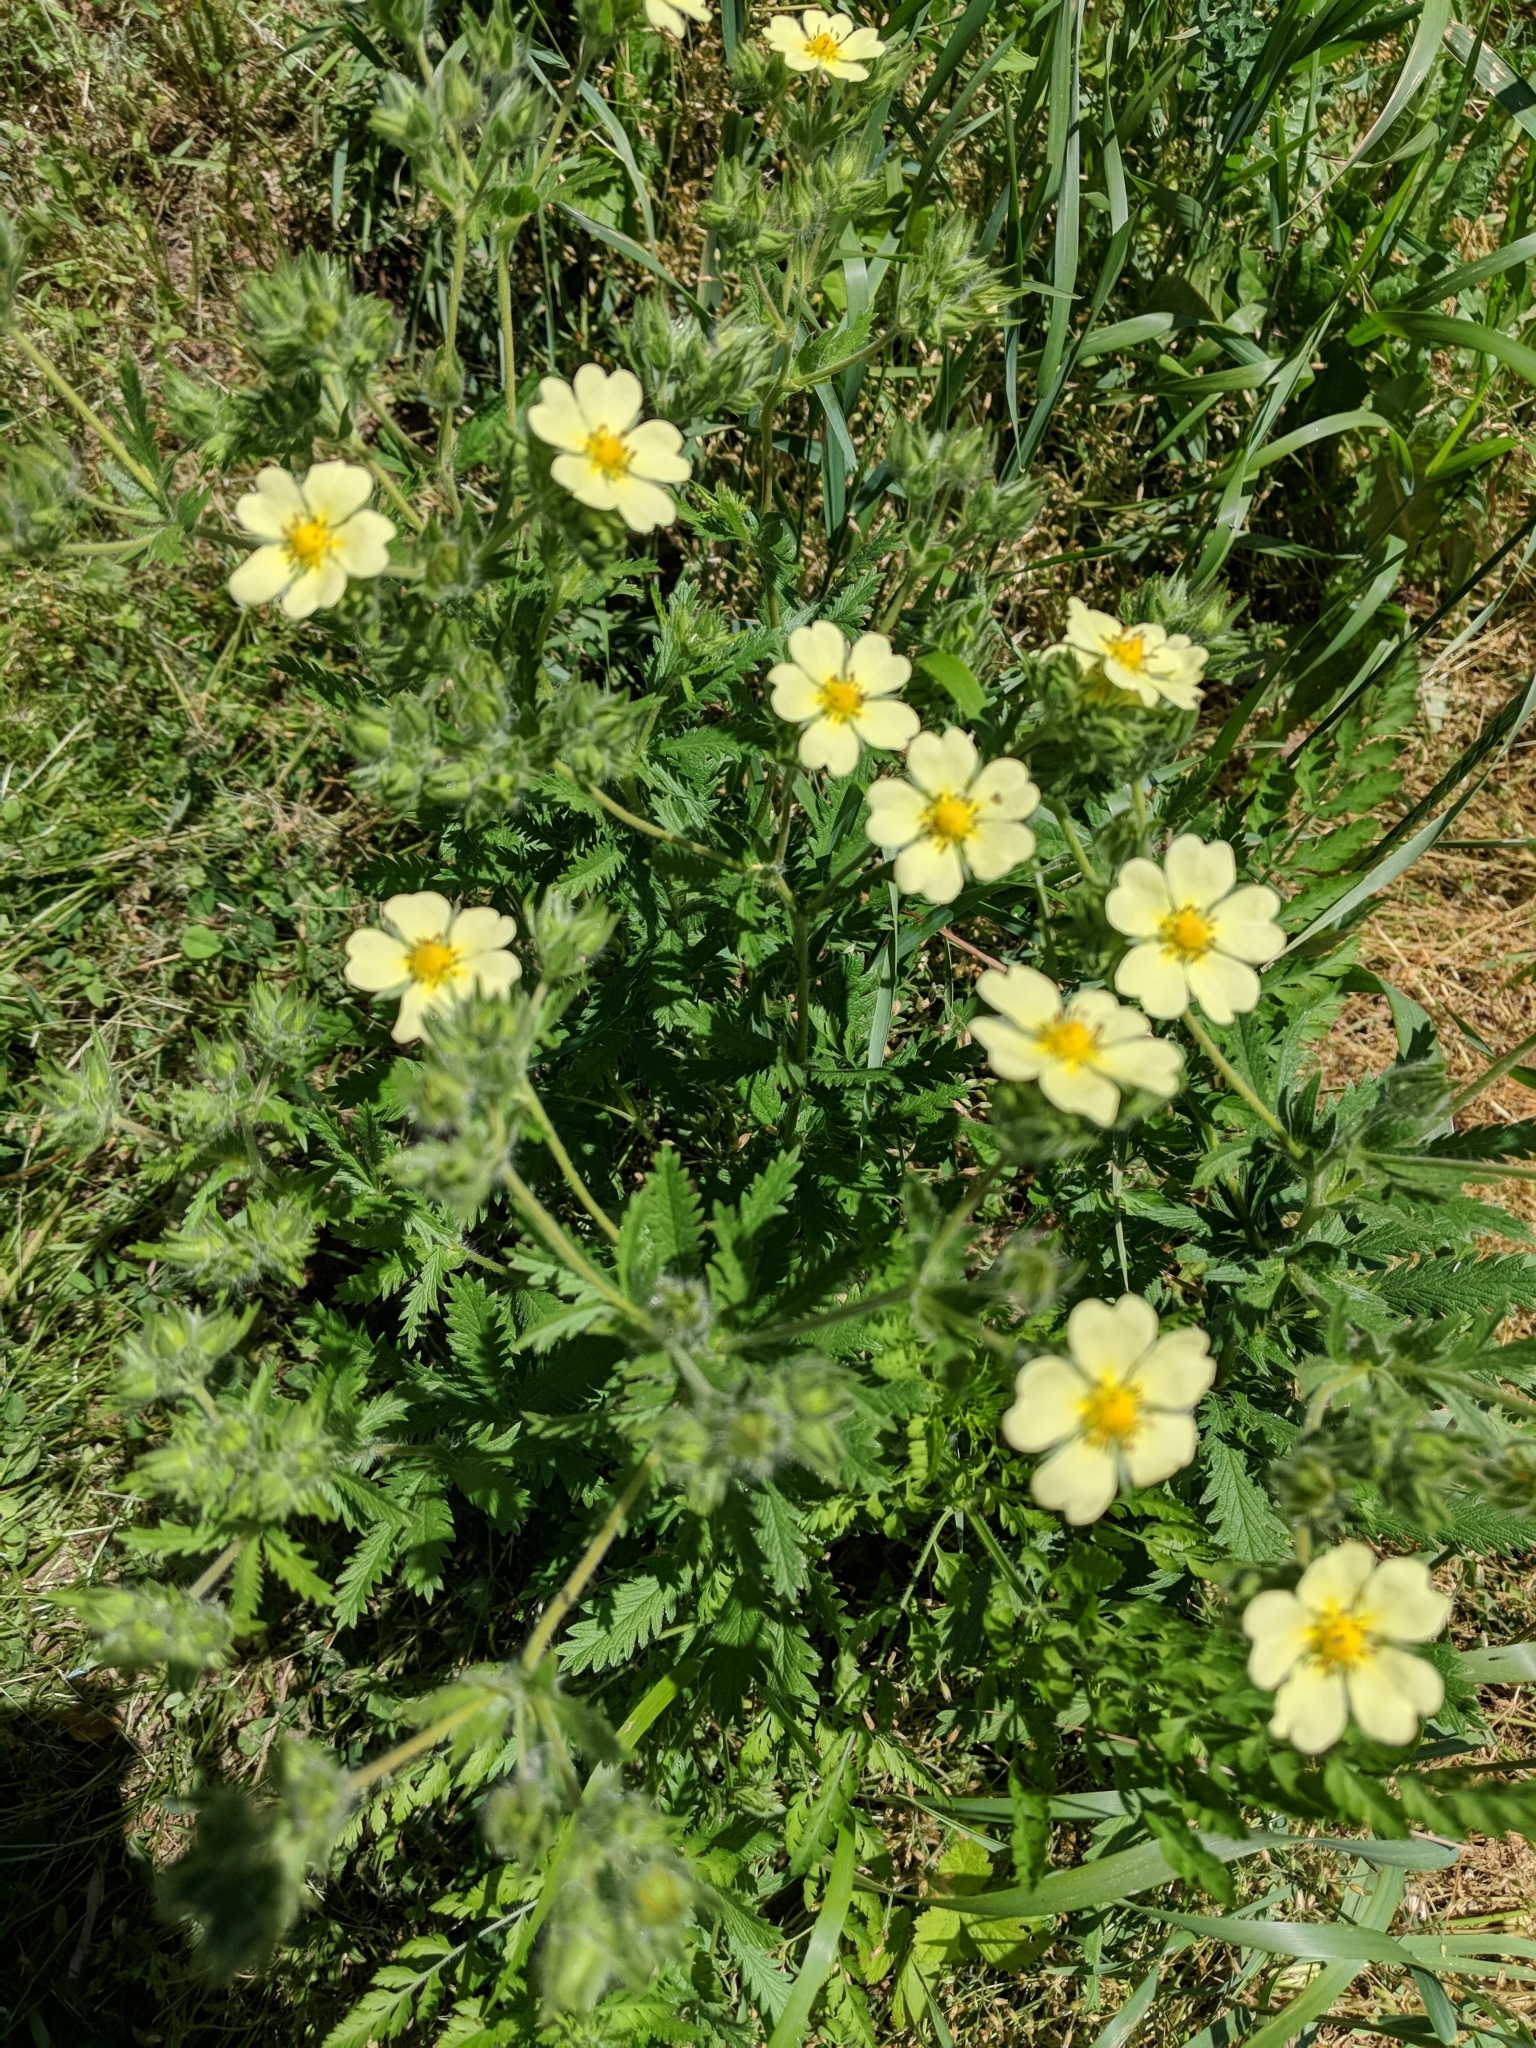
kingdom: Plantae
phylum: Tracheophyta
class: Magnoliopsida
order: Rosales
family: Rosaceae
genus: Potentilla
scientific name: Potentilla recta
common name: Sulphur cinquefoil
